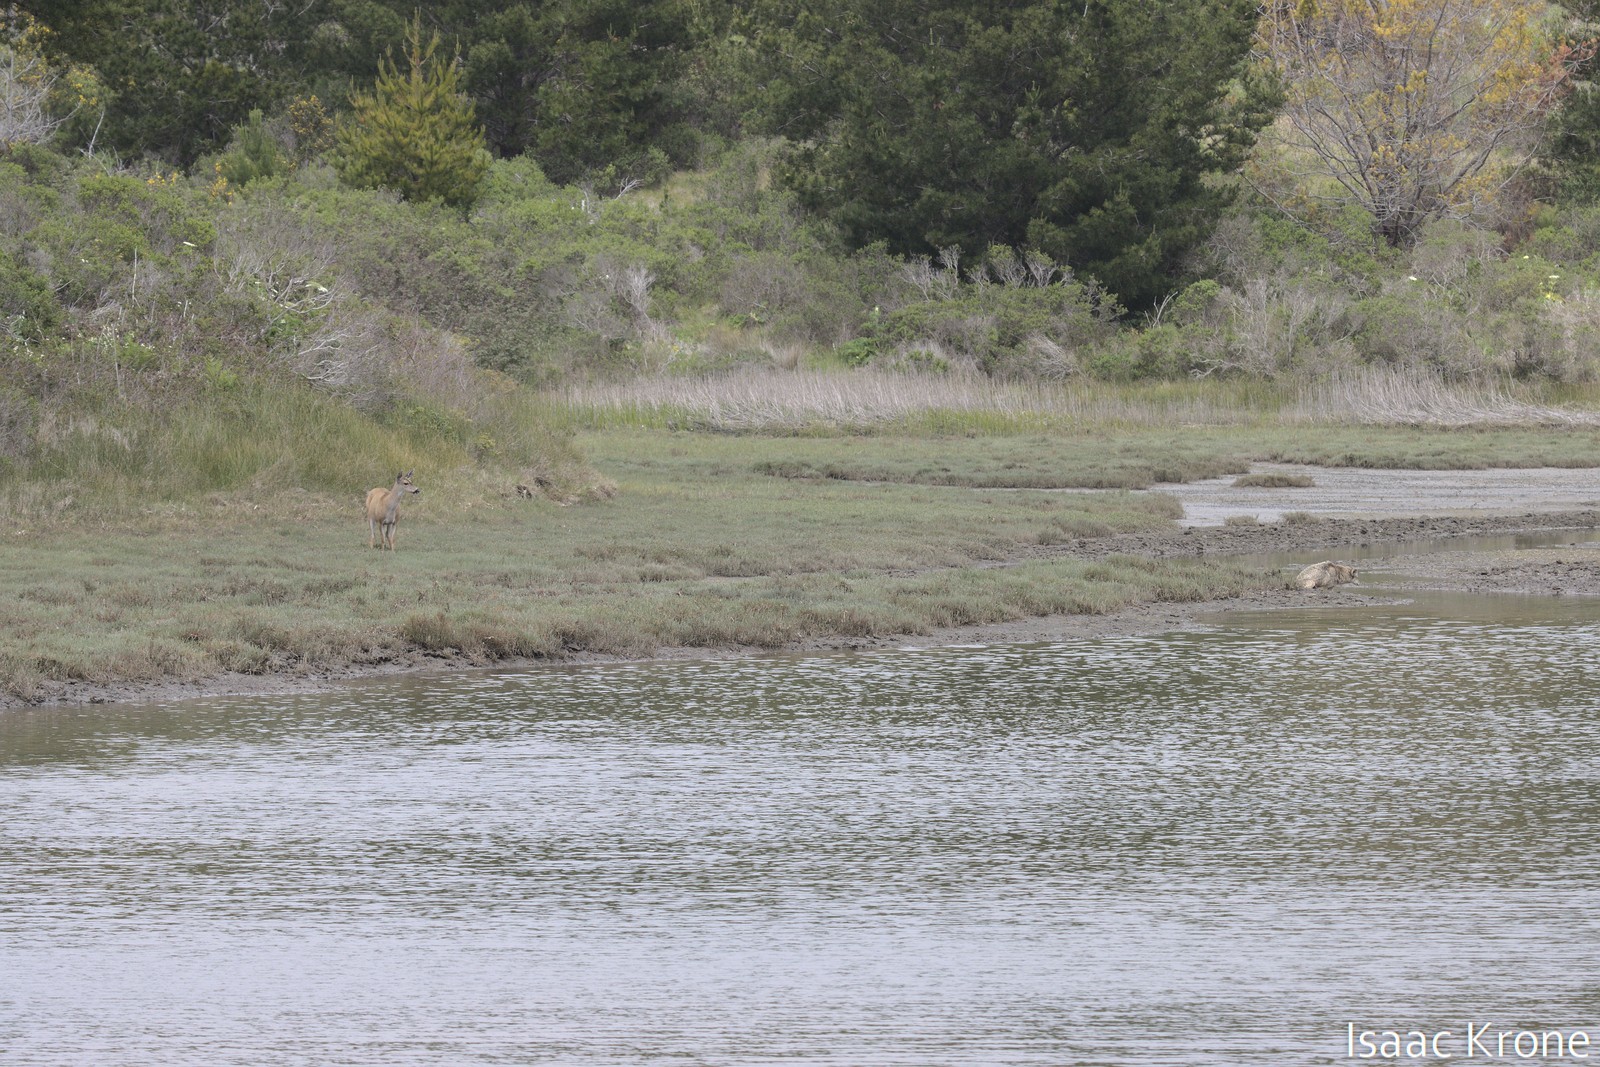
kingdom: Animalia
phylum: Chordata
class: Mammalia
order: Artiodactyla
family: Cervidae
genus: Odocoileus
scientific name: Odocoileus hemionus
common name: Mule deer
